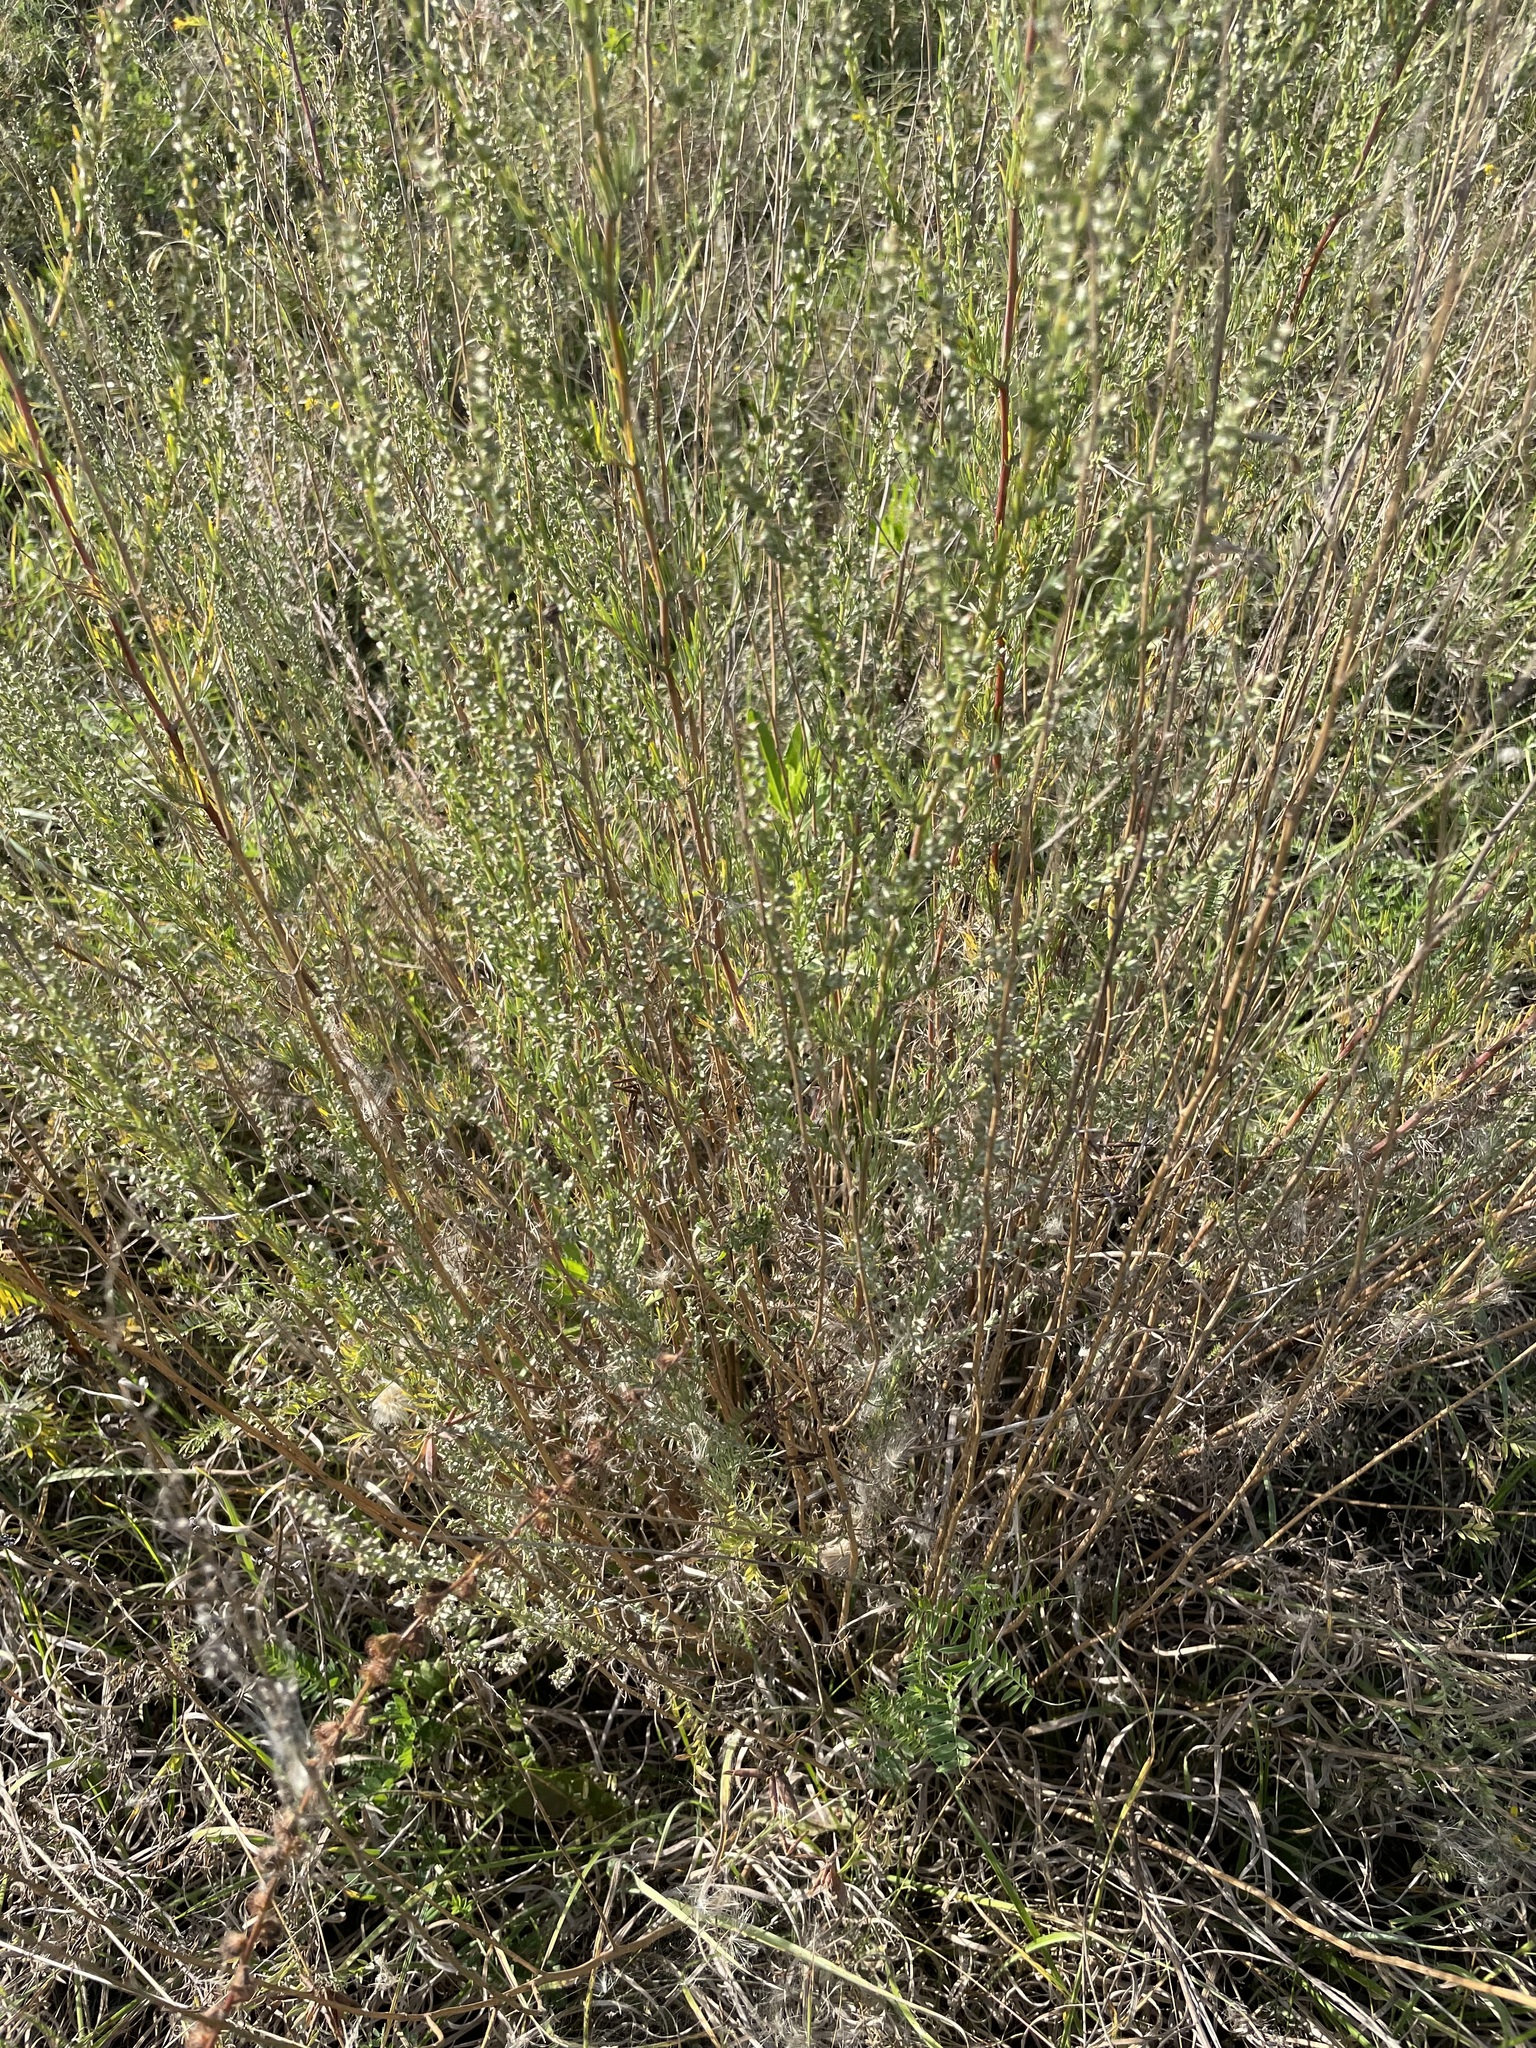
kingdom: Plantae
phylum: Tracheophyta
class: Magnoliopsida
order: Asterales
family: Asteraceae
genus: Artemisia
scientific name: Artemisia campestris
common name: Field wormwood
